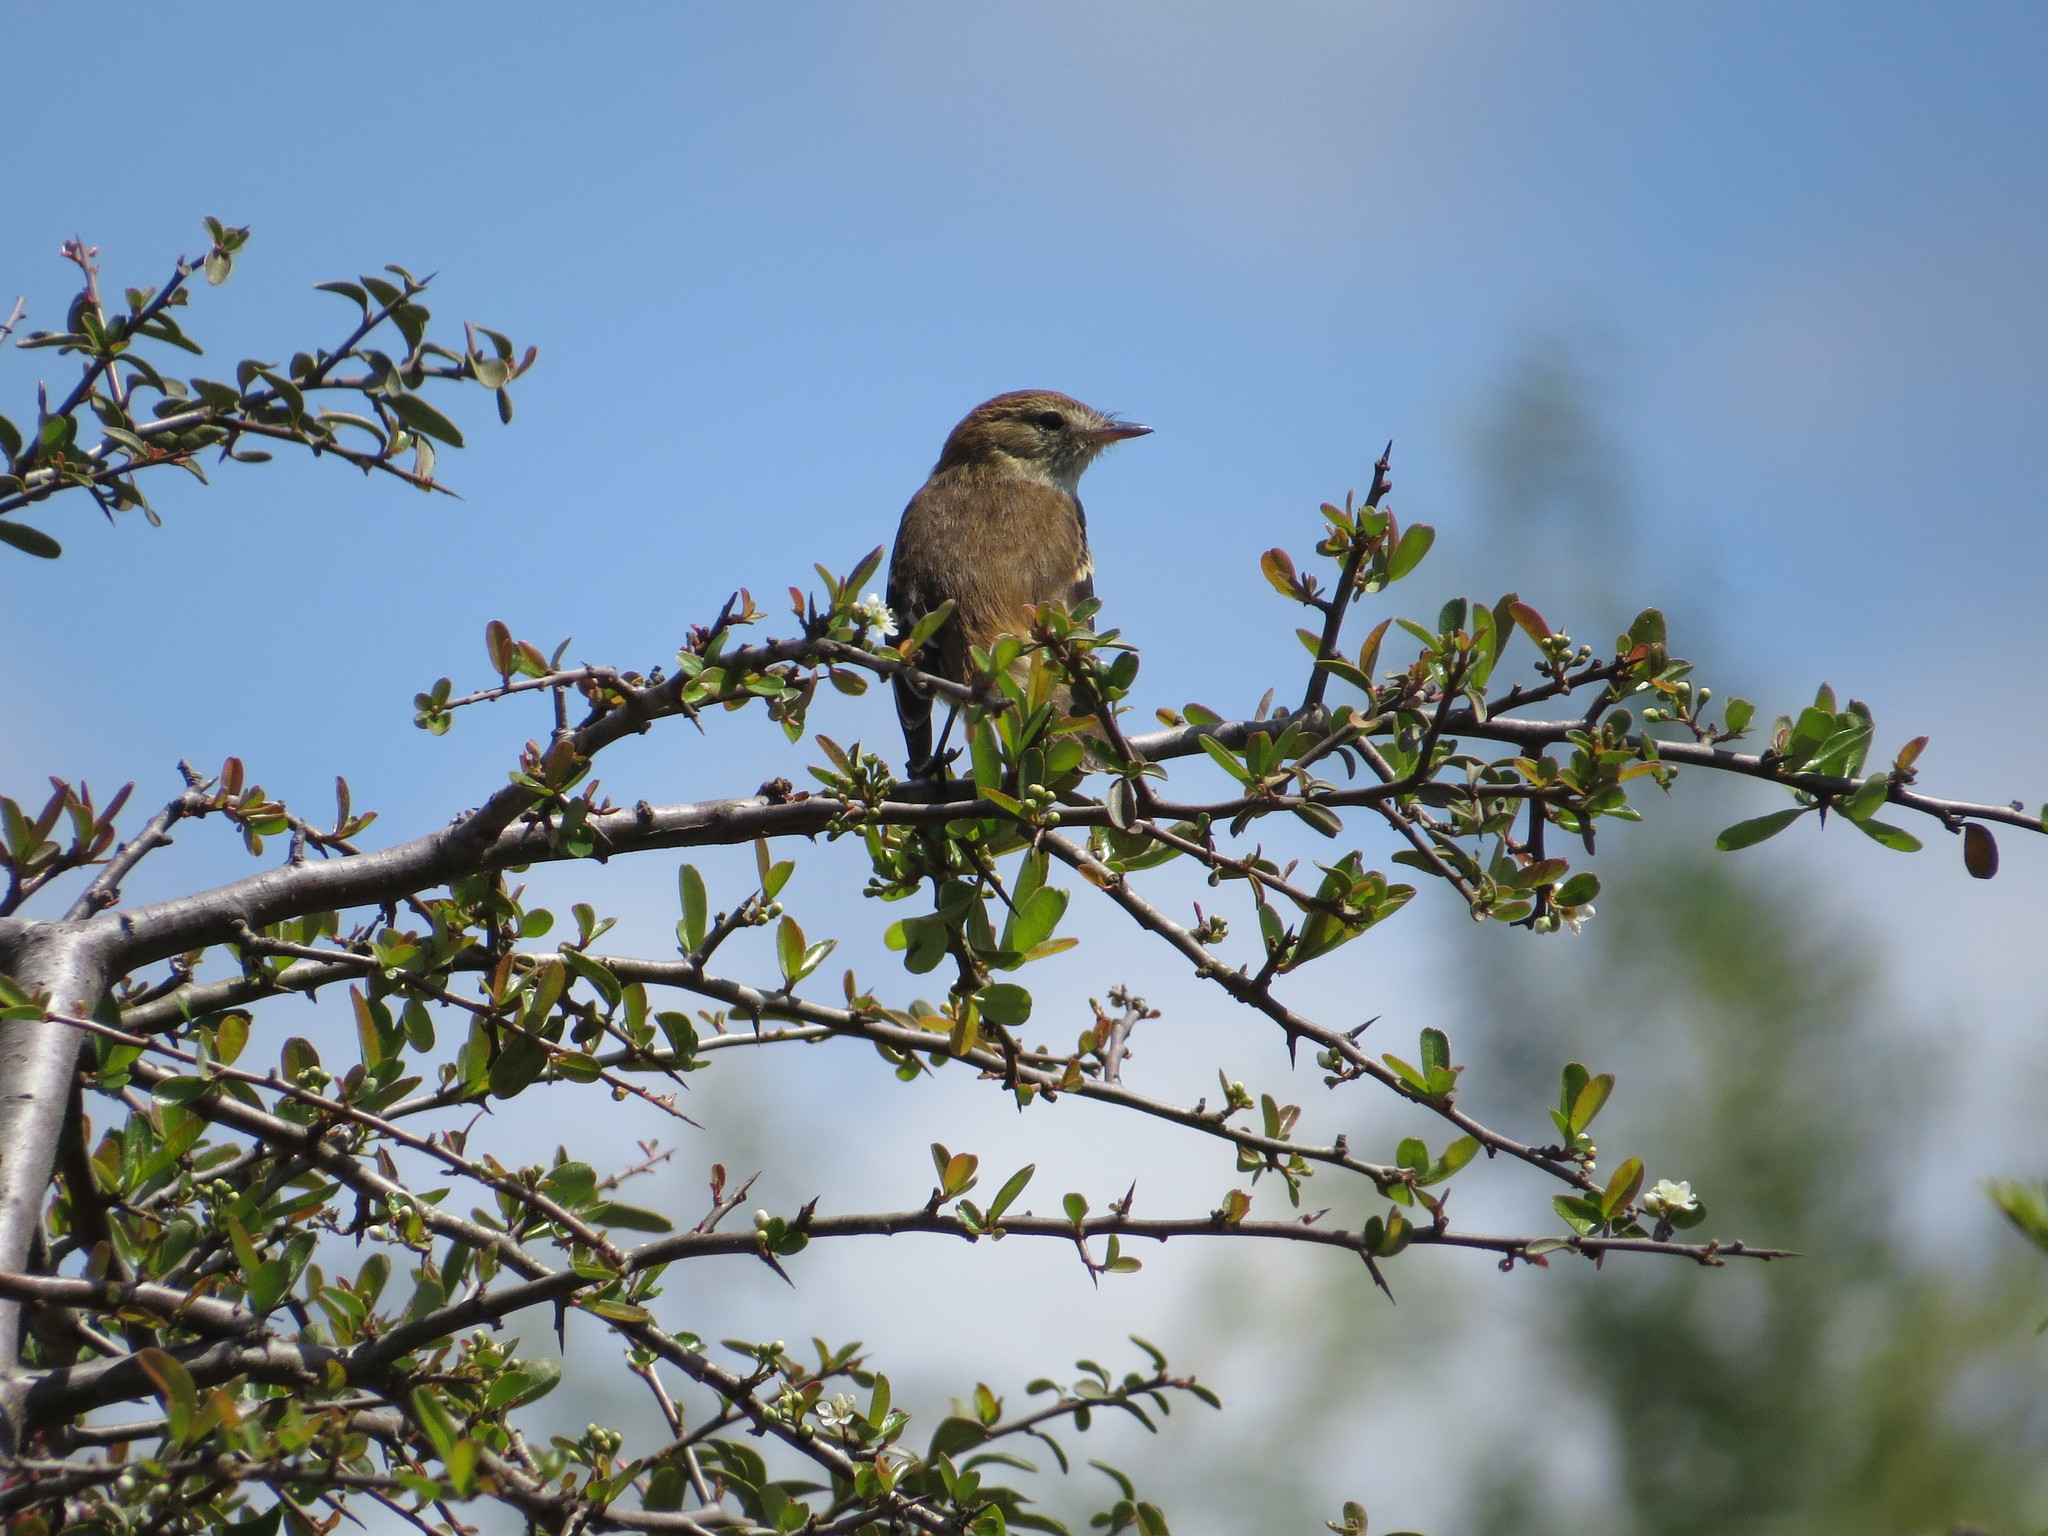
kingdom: Animalia
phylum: Chordata
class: Aves
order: Passeriformes
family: Tyrannidae
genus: Myiophobus
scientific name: Myiophobus fasciatus
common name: Bran-colored flycatcher
